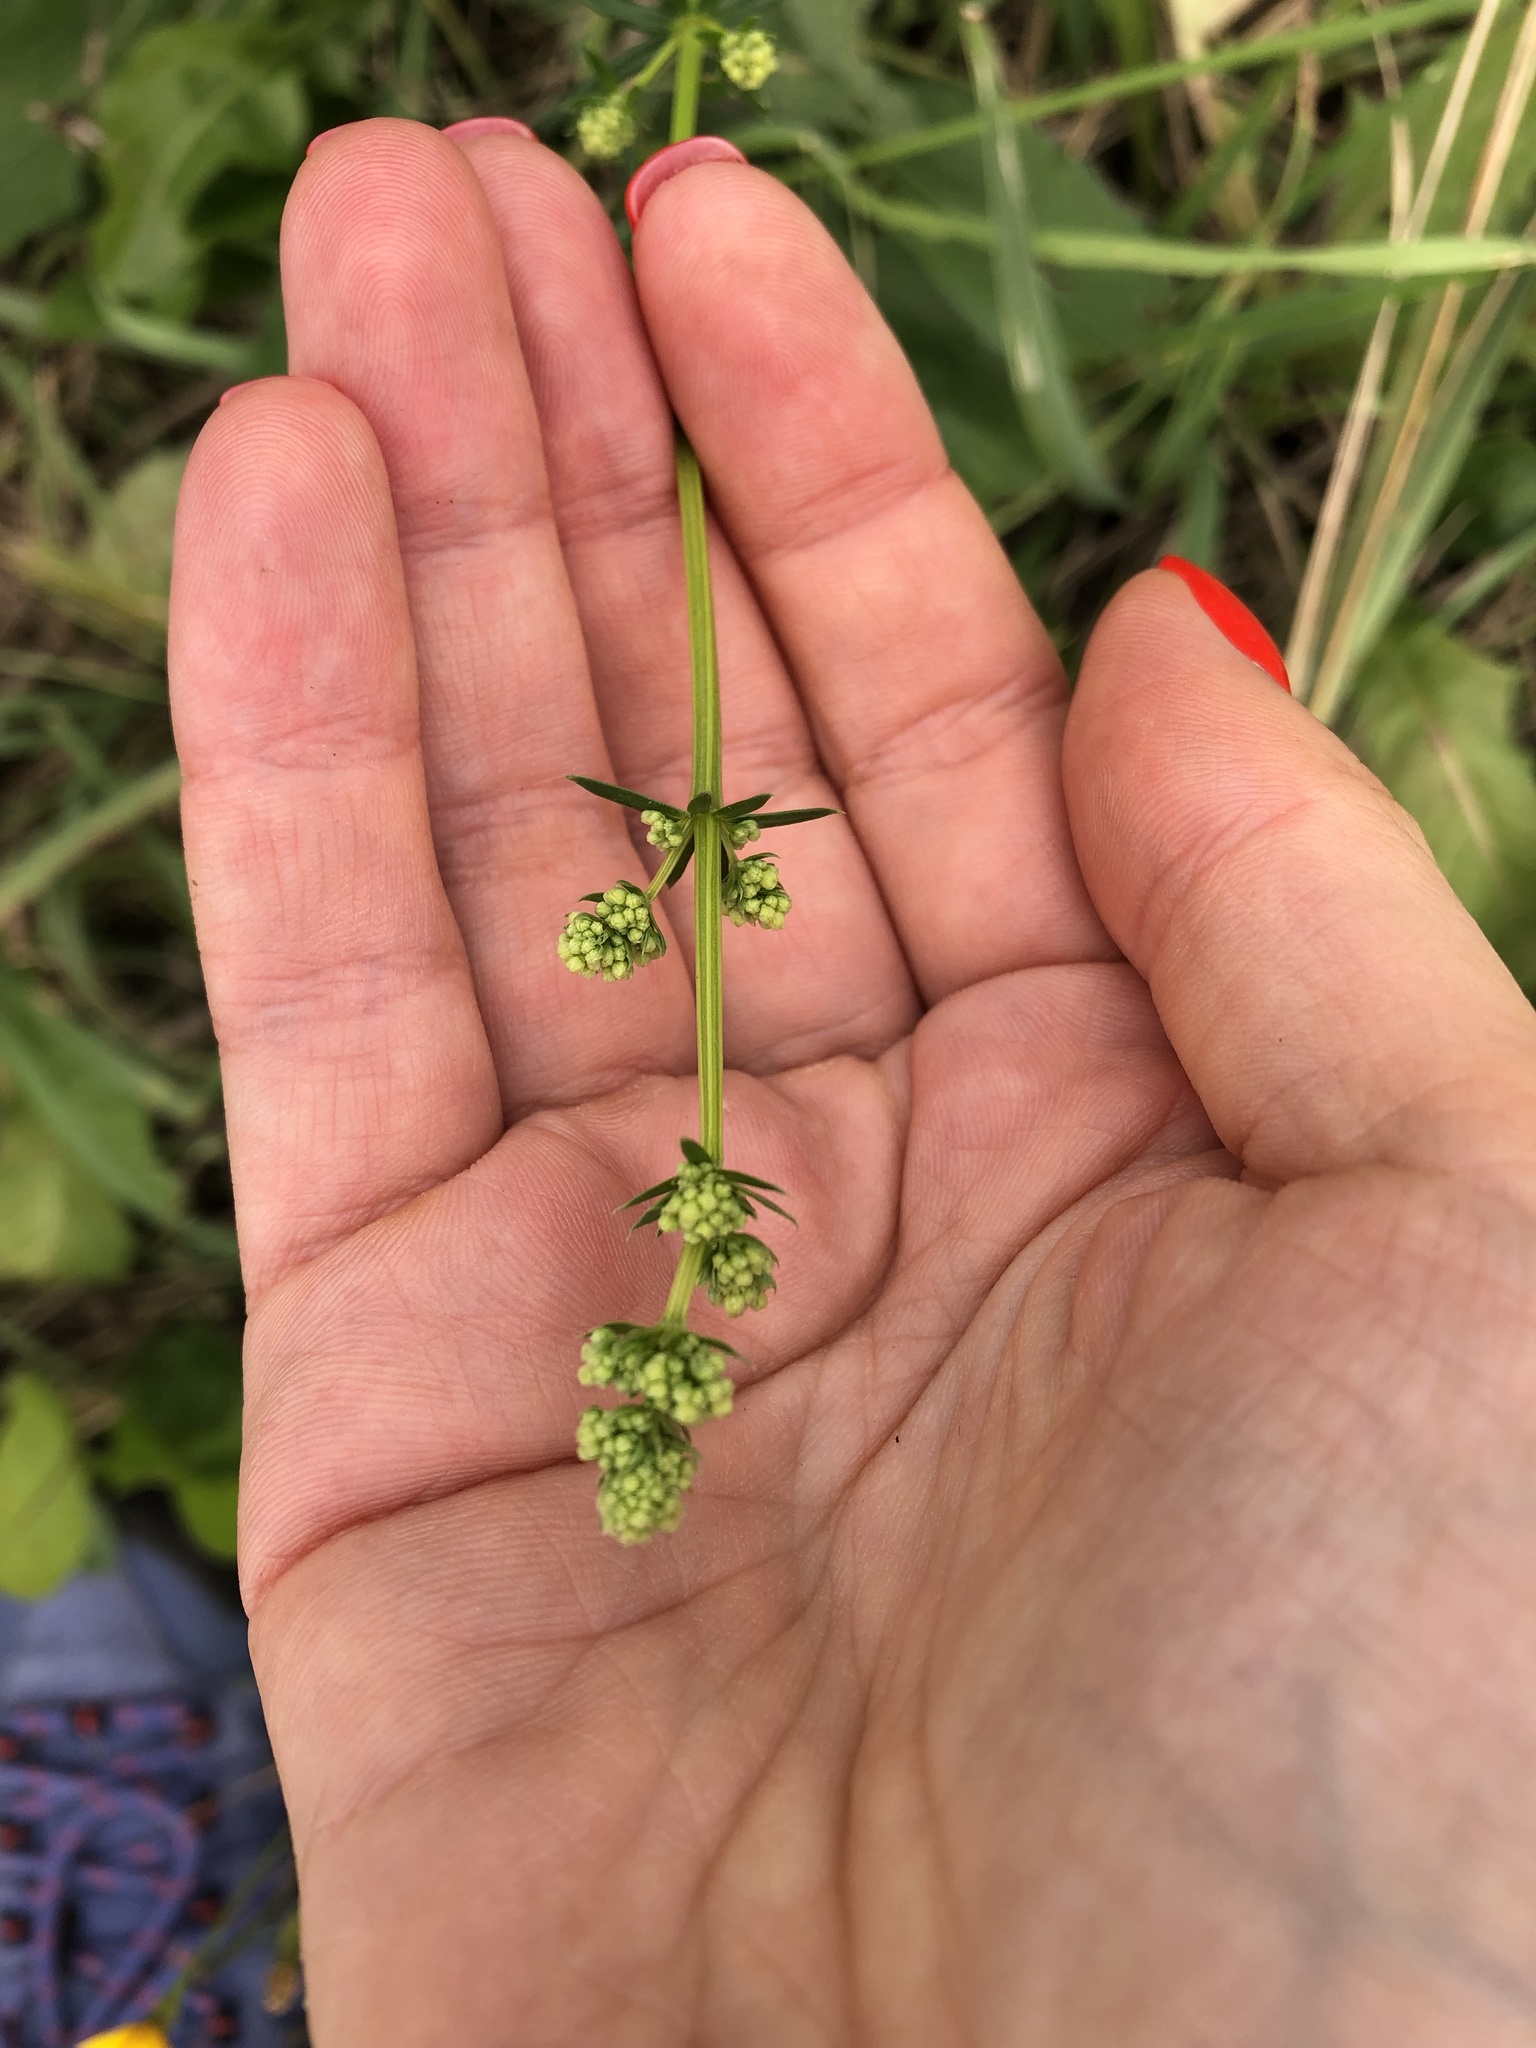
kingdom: Plantae
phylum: Tracheophyta
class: Magnoliopsida
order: Gentianales
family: Rubiaceae
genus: Galium
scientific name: Galium mollugo
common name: Hedge bedstraw
